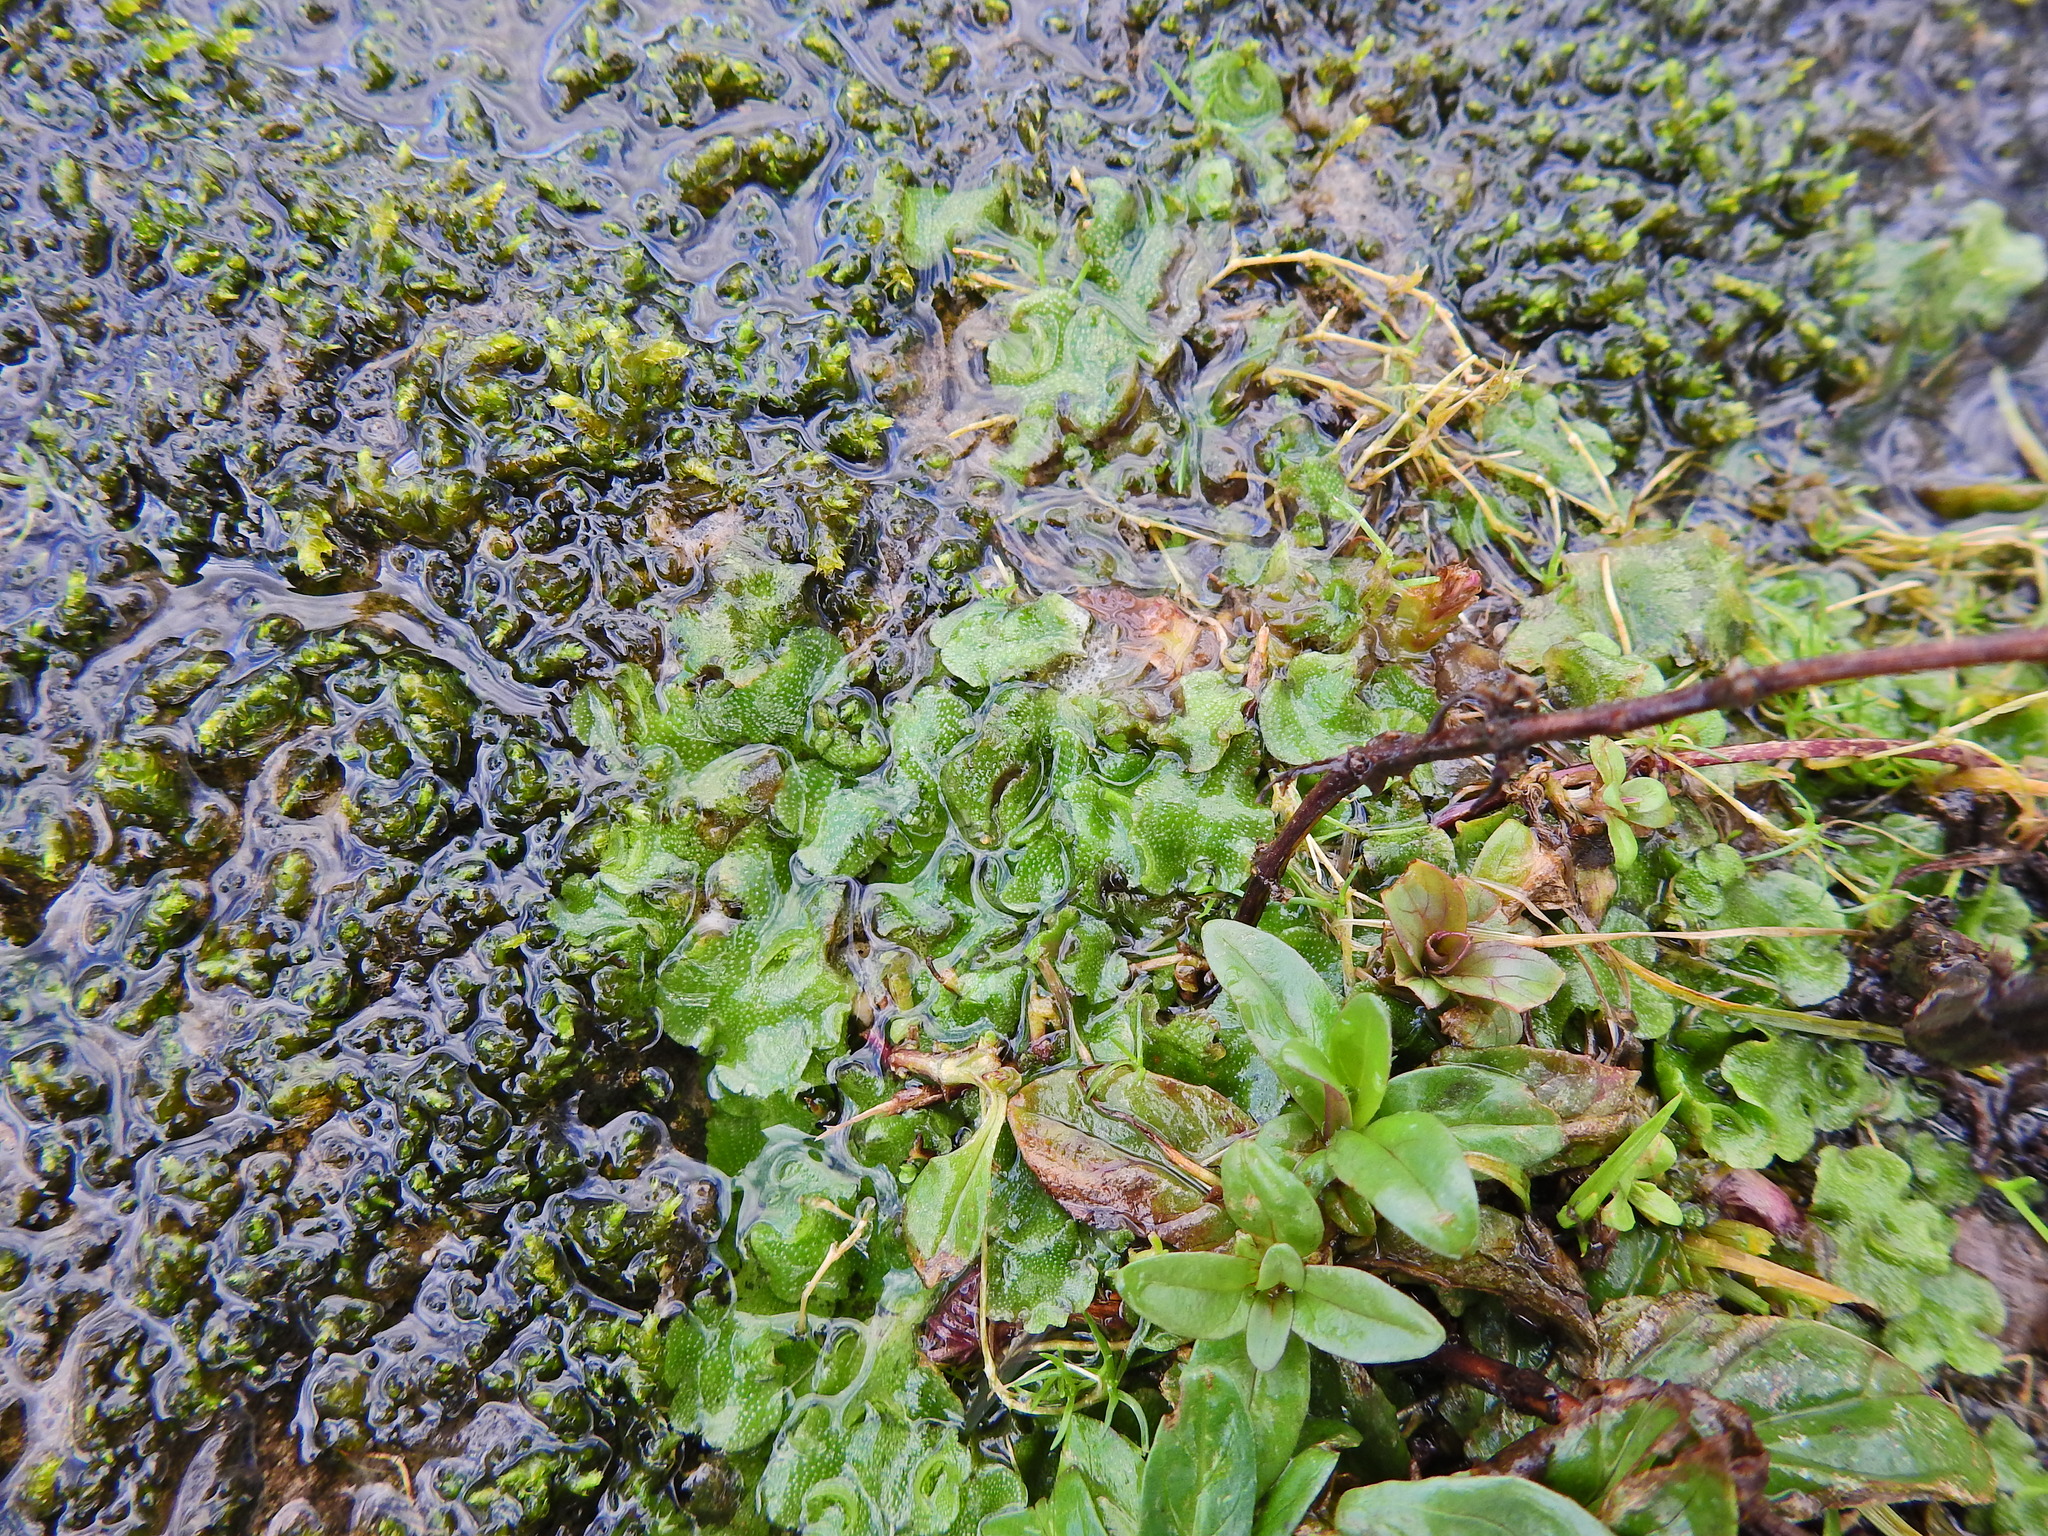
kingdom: Plantae
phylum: Marchantiophyta
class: Marchantiopsida
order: Lunulariales
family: Lunulariaceae
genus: Lunularia
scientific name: Lunularia cruciata
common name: Crescent-cup liverwort
